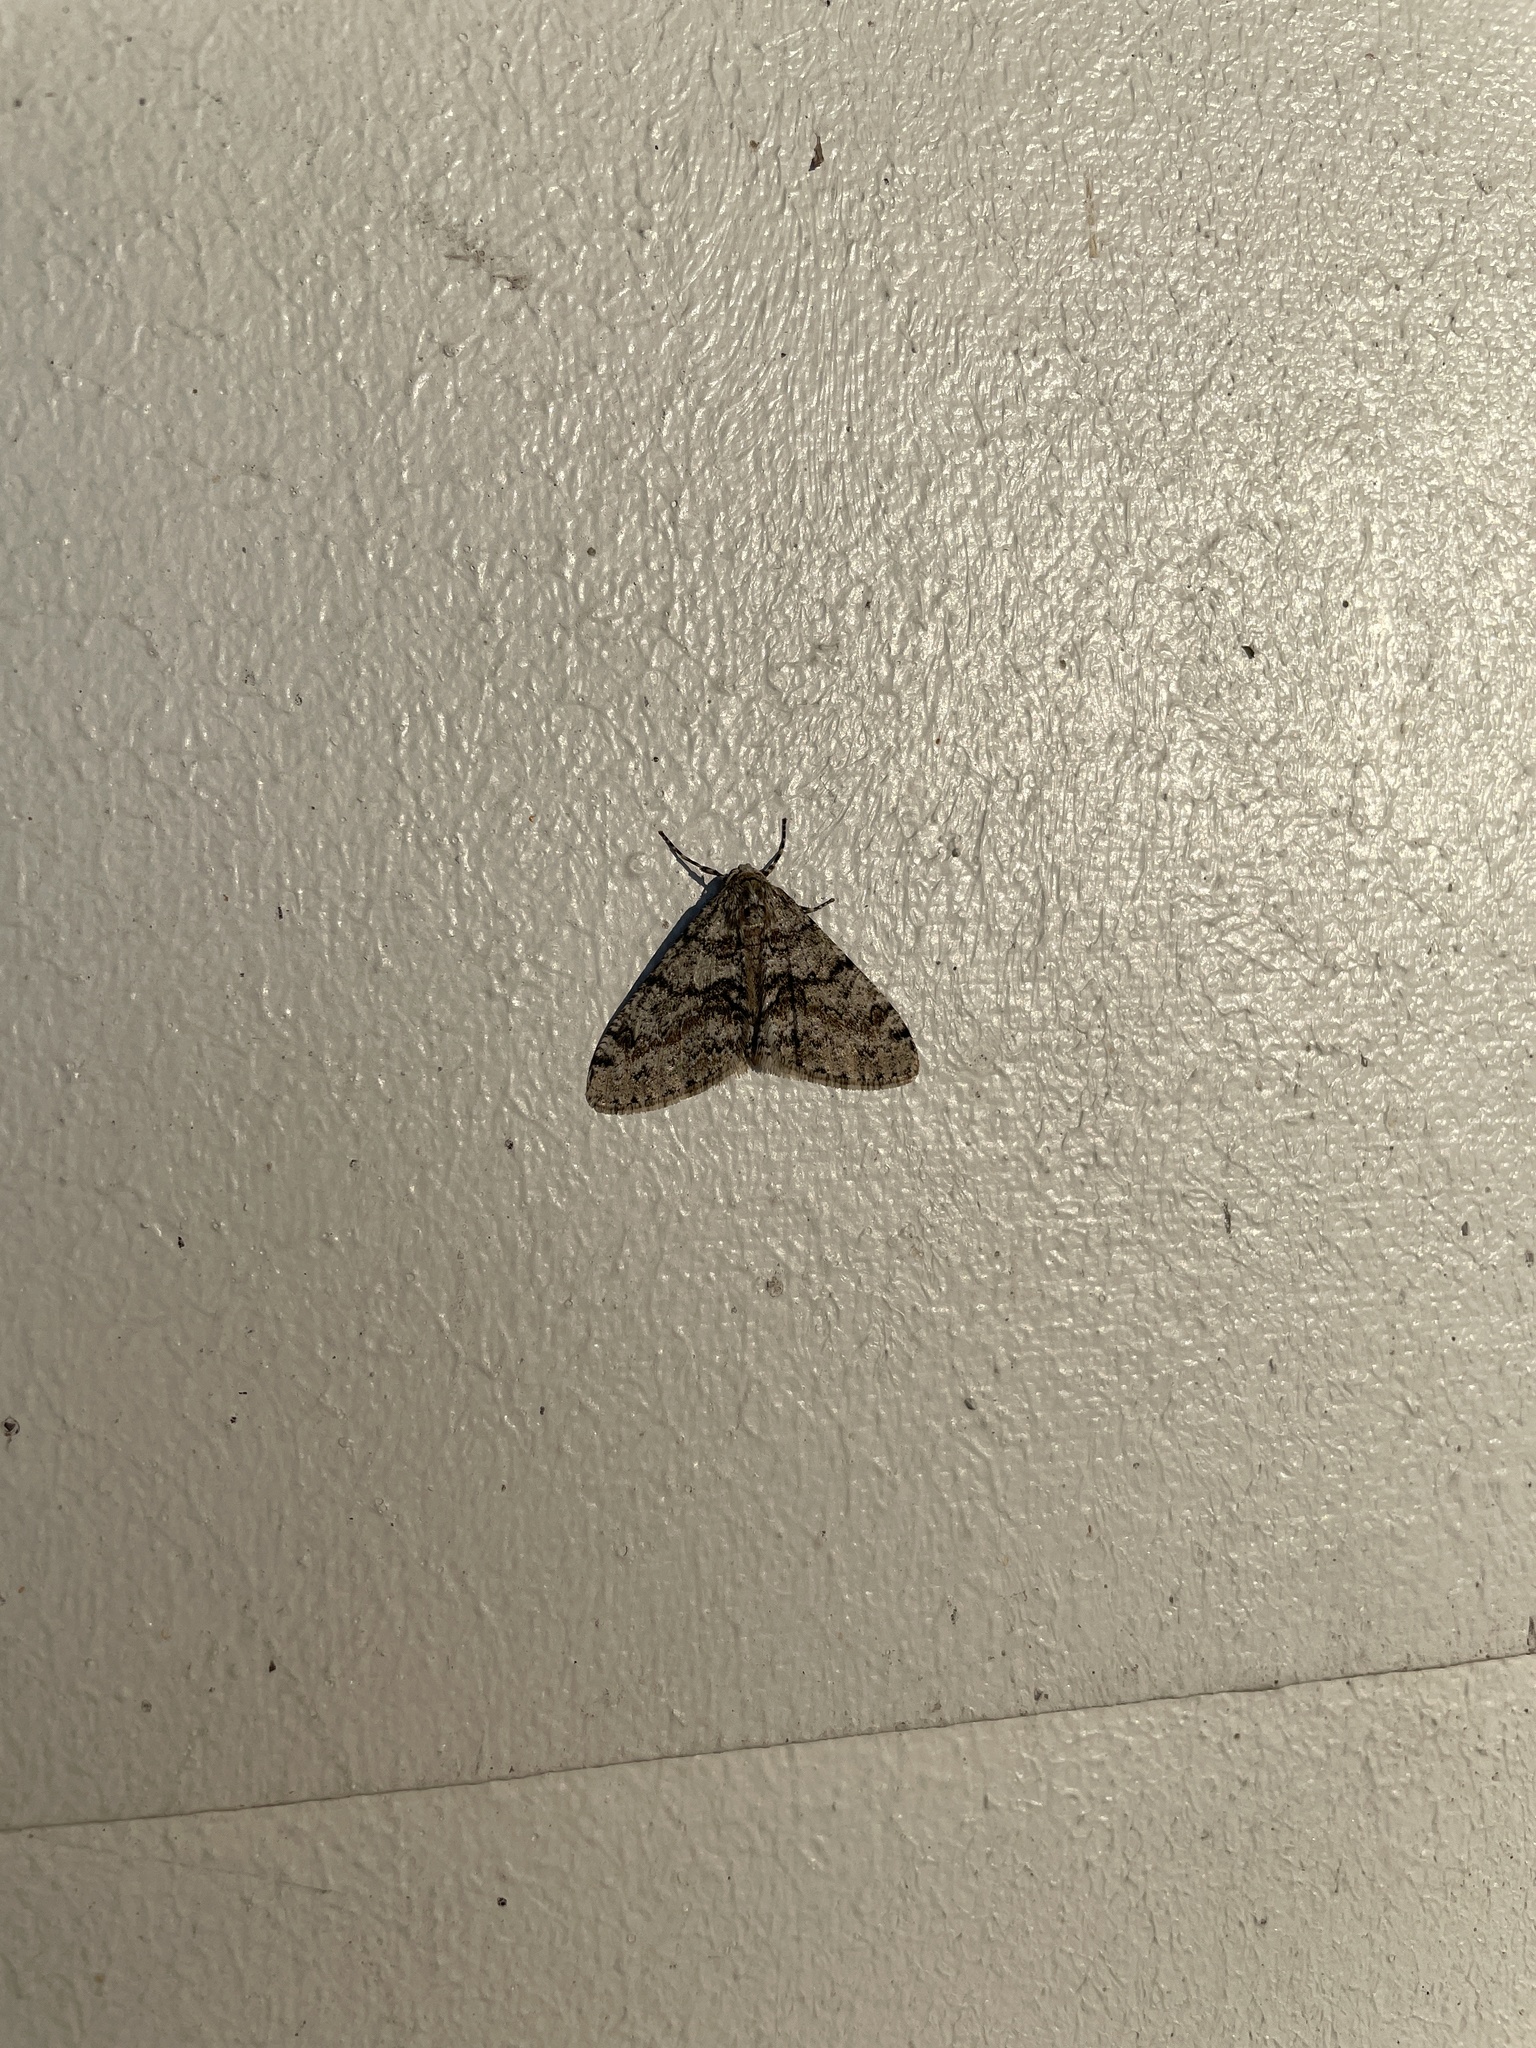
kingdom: Animalia
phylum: Arthropoda
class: Insecta
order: Lepidoptera
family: Geometridae
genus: Phigalia
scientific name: Phigalia denticulata
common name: Toothed phigalia
